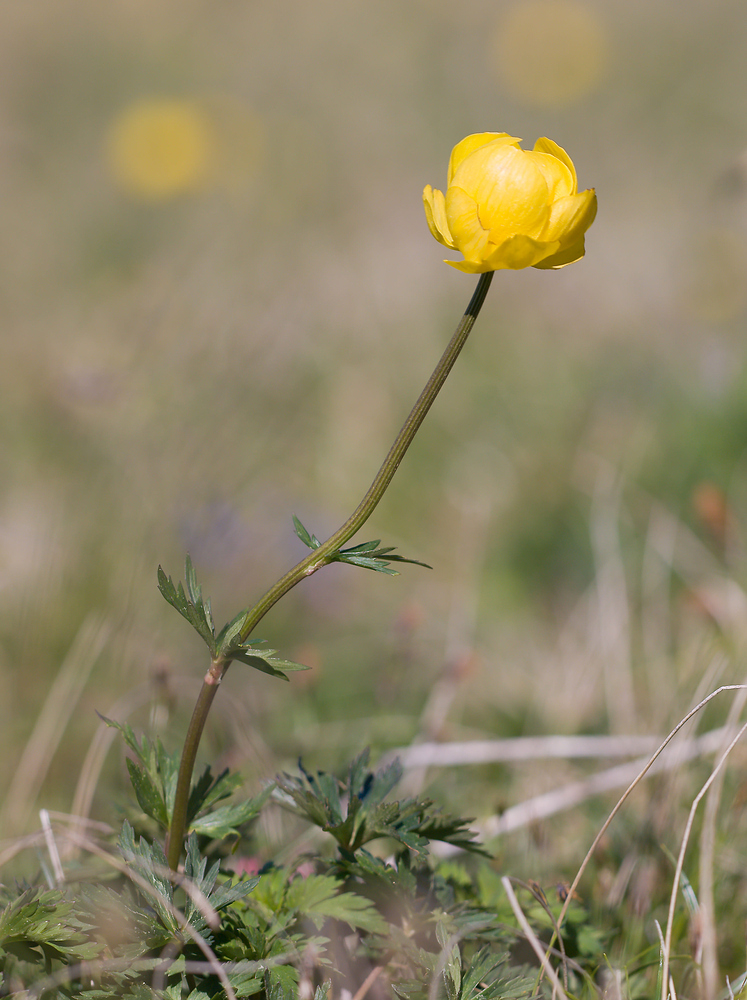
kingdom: Plantae
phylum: Tracheophyta
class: Magnoliopsida
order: Ranunculales
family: Ranunculaceae
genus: Trollius
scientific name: Trollius europaeus
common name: European globeflower
